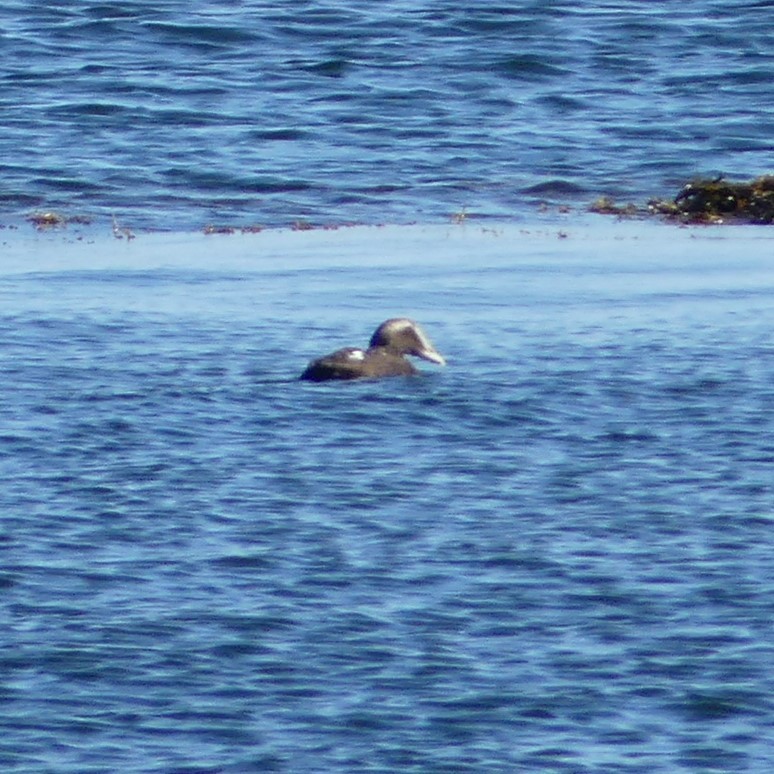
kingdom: Animalia
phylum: Chordata
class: Aves
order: Anseriformes
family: Anatidae
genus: Somateria
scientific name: Somateria mollissima
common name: Common eider
